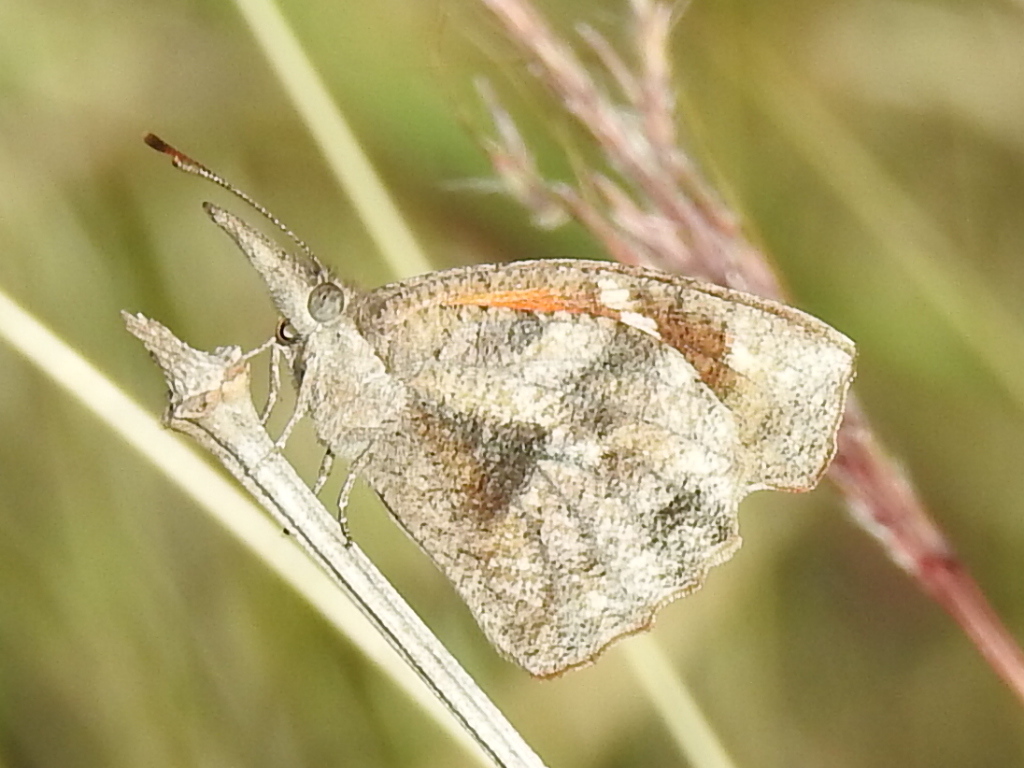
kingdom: Animalia
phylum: Arthropoda
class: Insecta
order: Lepidoptera
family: Nymphalidae
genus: Libytheana
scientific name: Libytheana carinenta
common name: American snout
